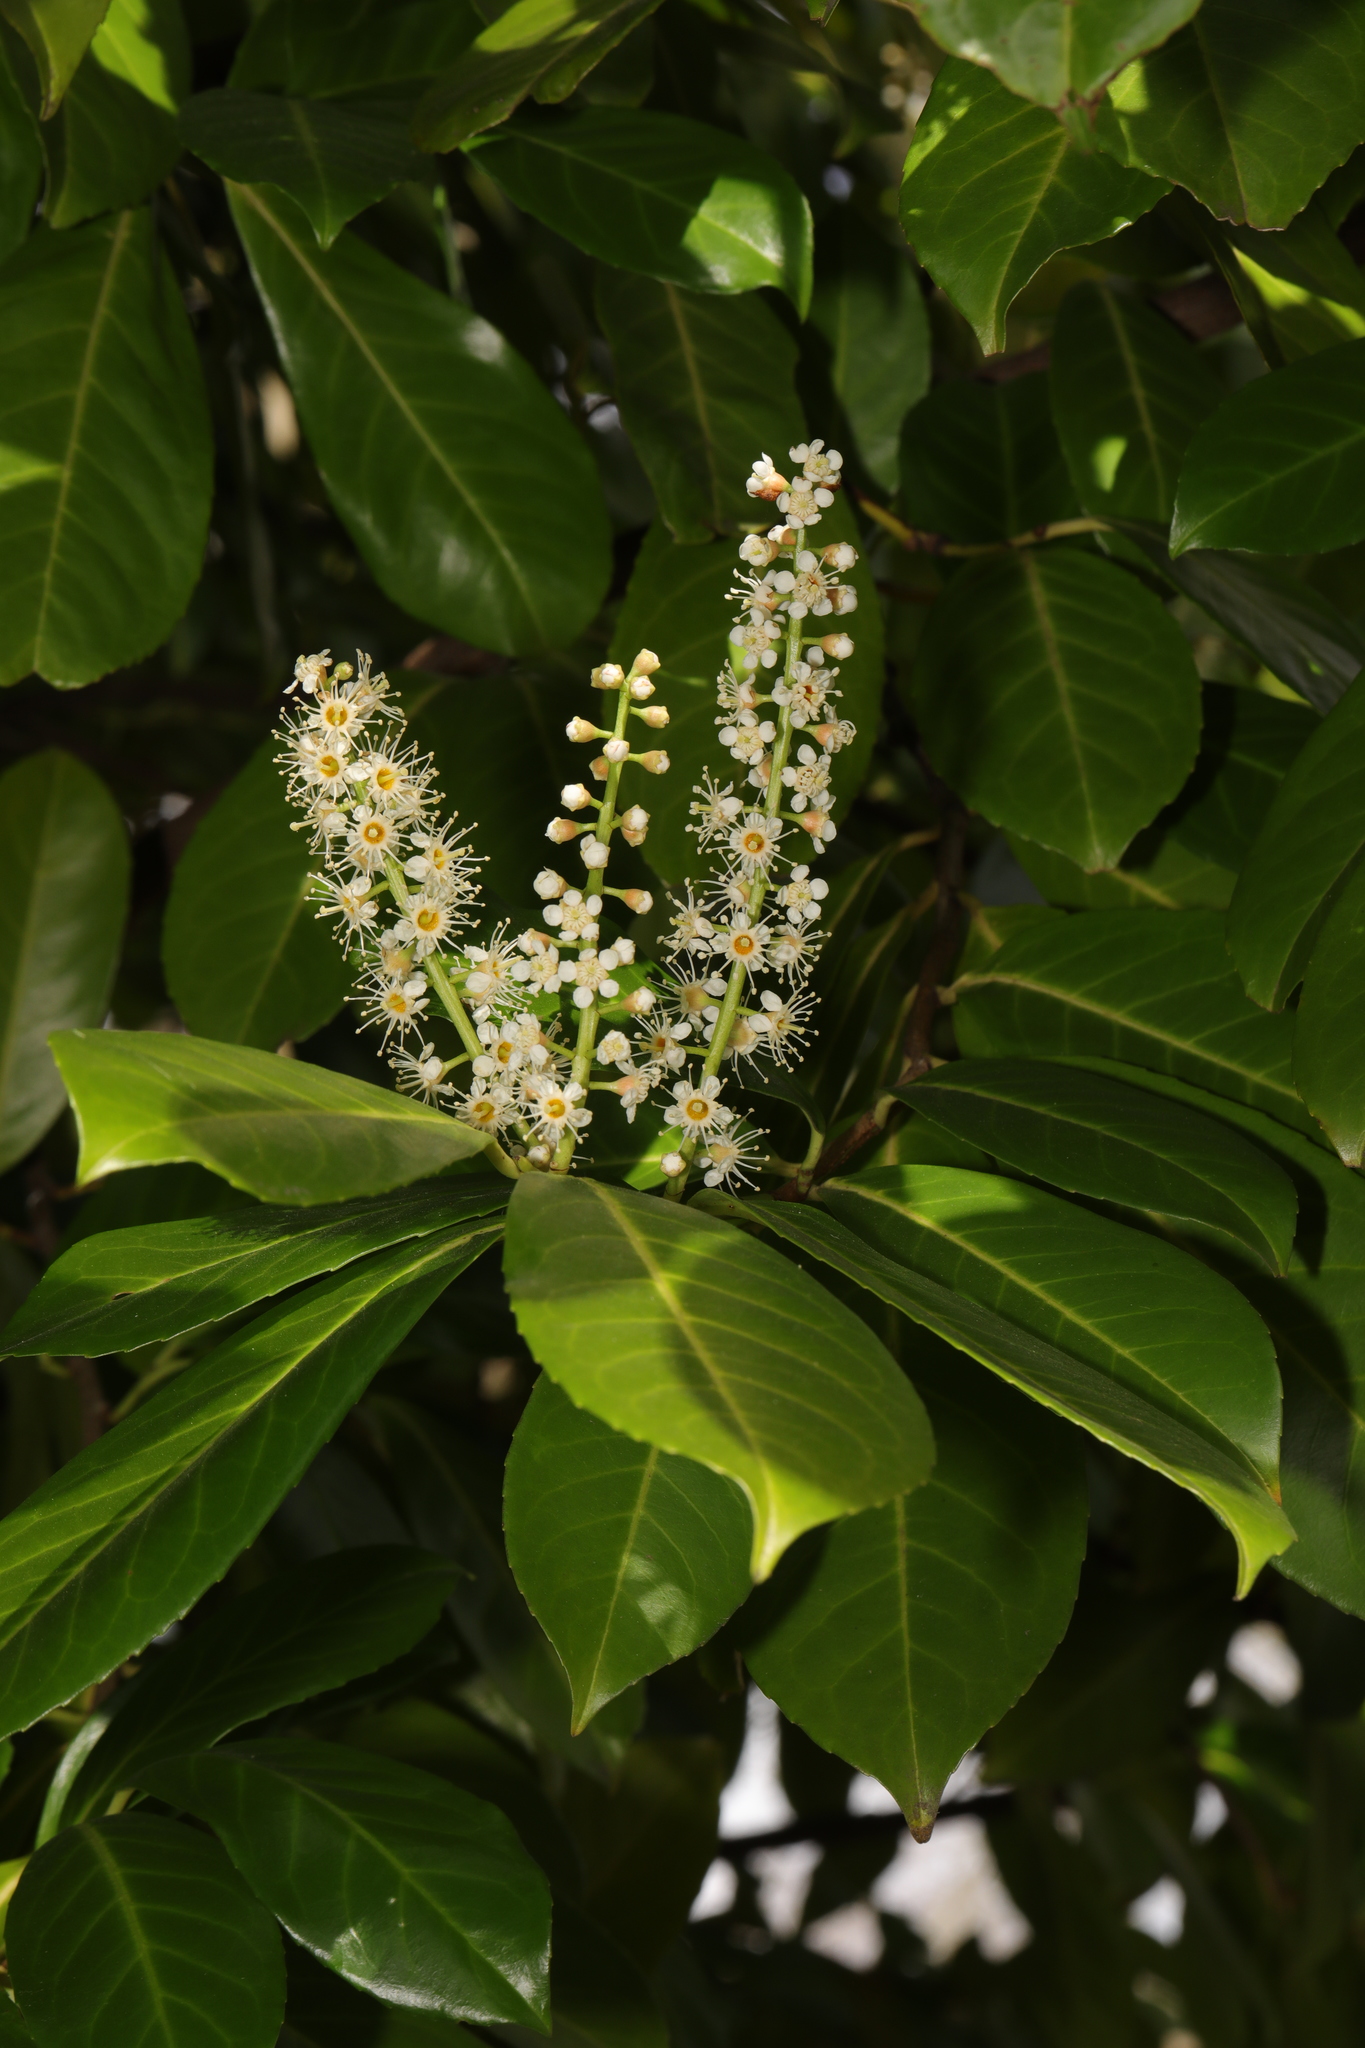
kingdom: Plantae
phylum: Tracheophyta
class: Magnoliopsida
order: Rosales
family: Rosaceae
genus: Prunus
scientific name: Prunus laurocerasus
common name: Cherry laurel
